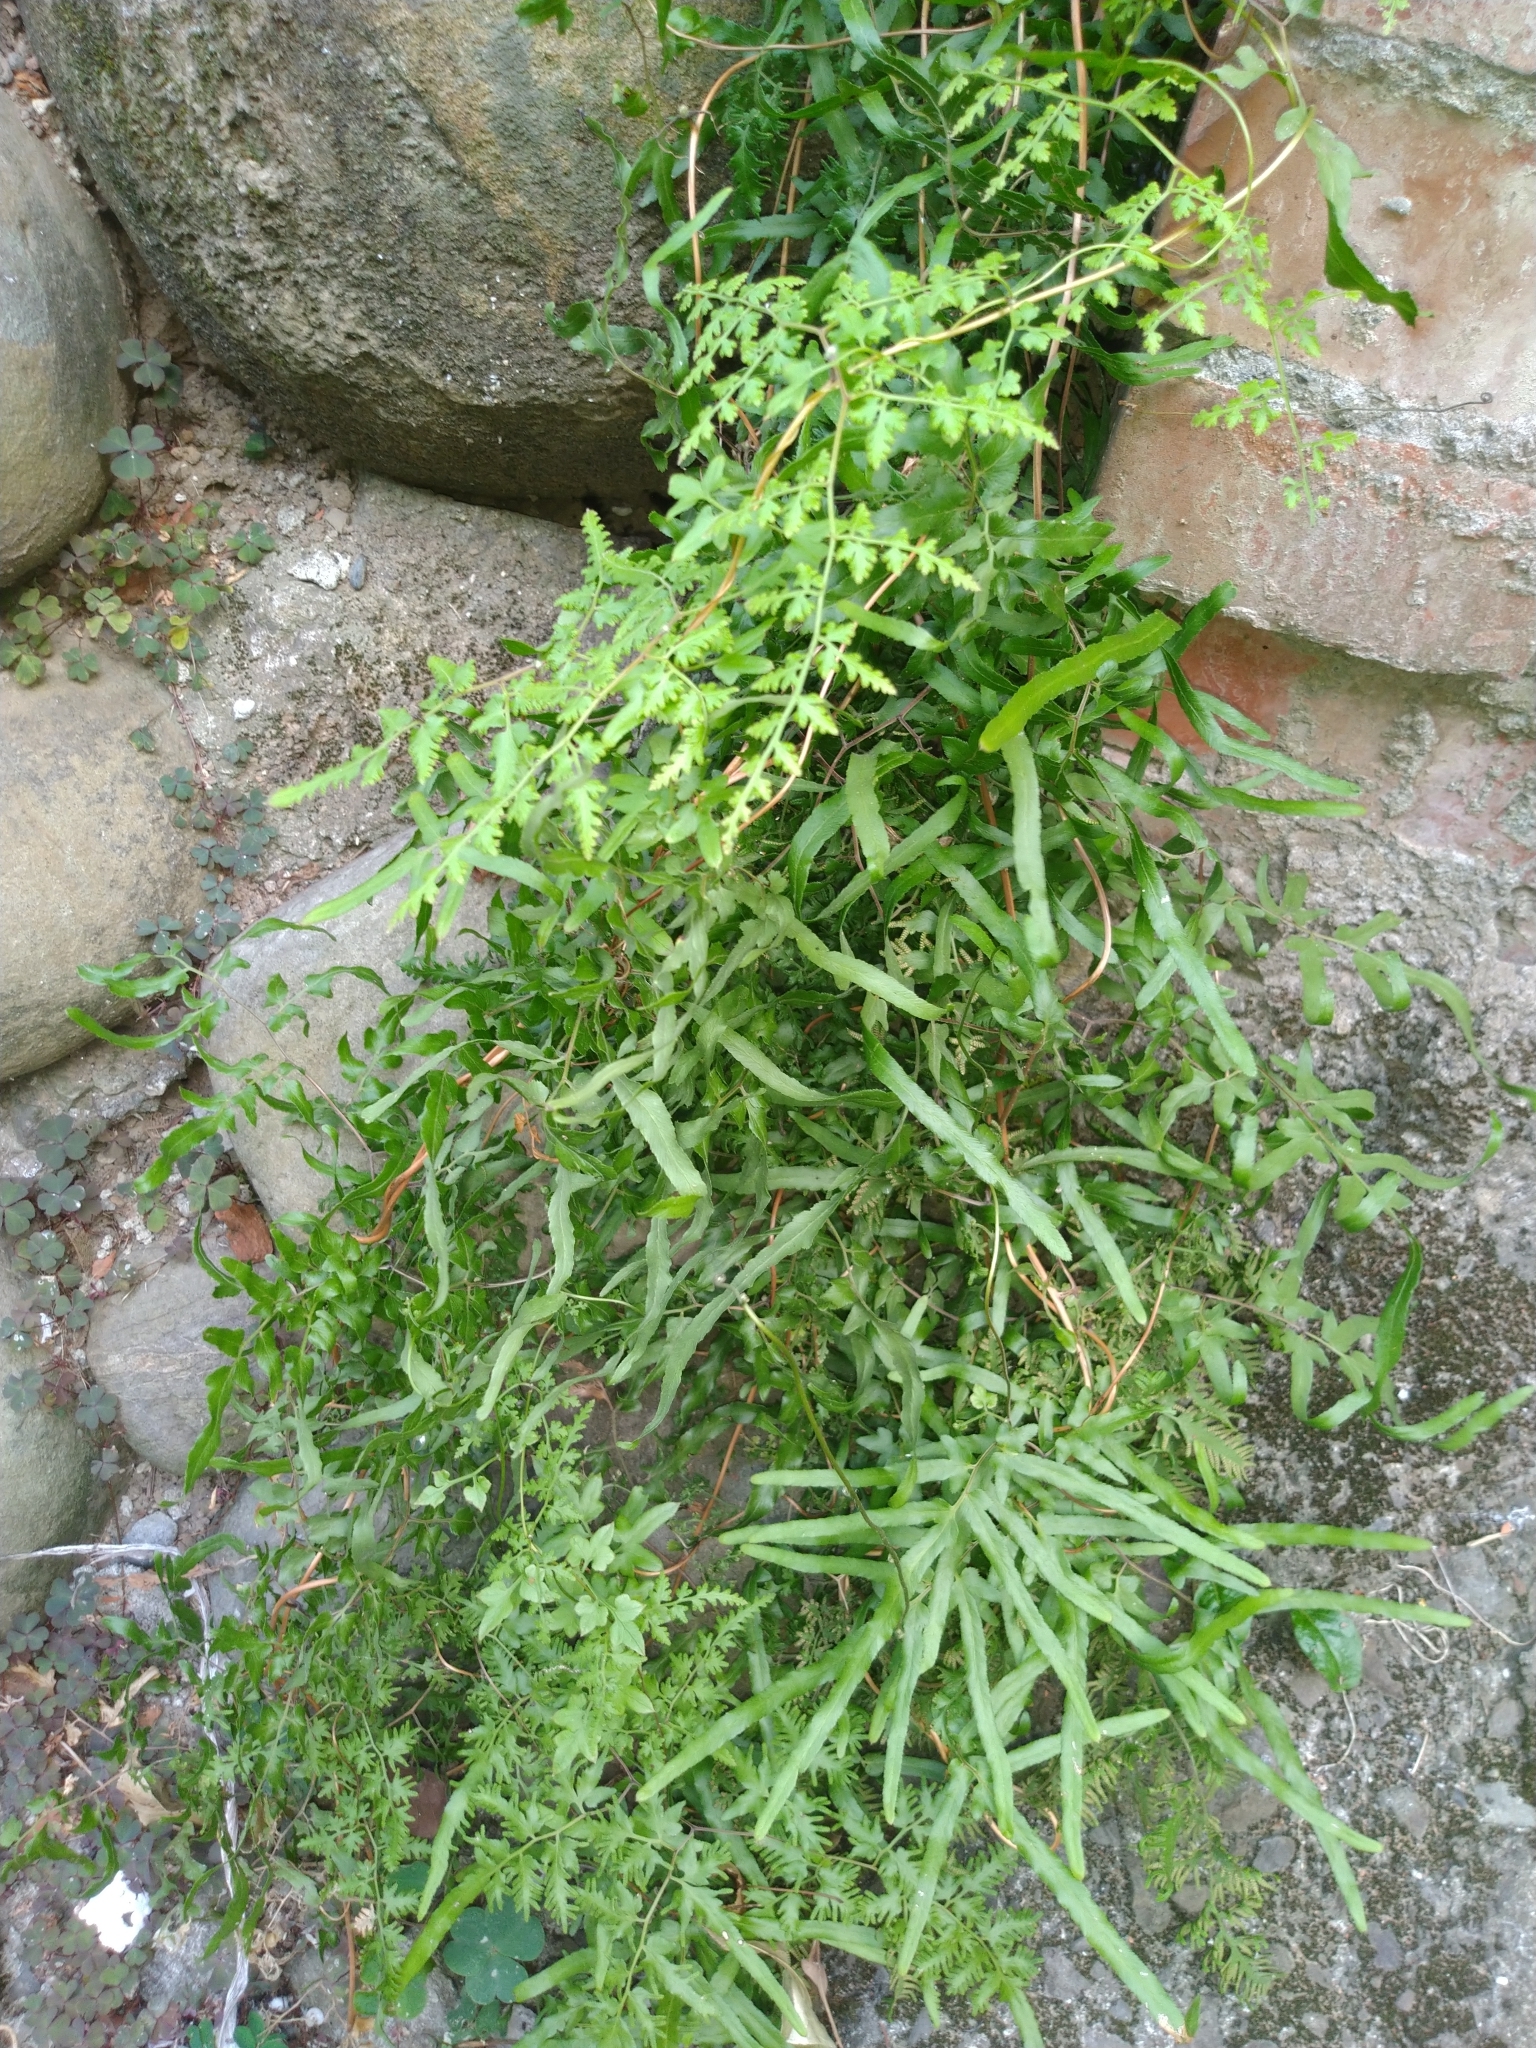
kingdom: Plantae
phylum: Tracheophyta
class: Polypodiopsida
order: Schizaeales
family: Lygodiaceae
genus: Lygodium
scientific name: Lygodium japonicum
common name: Japanese climbing fern
